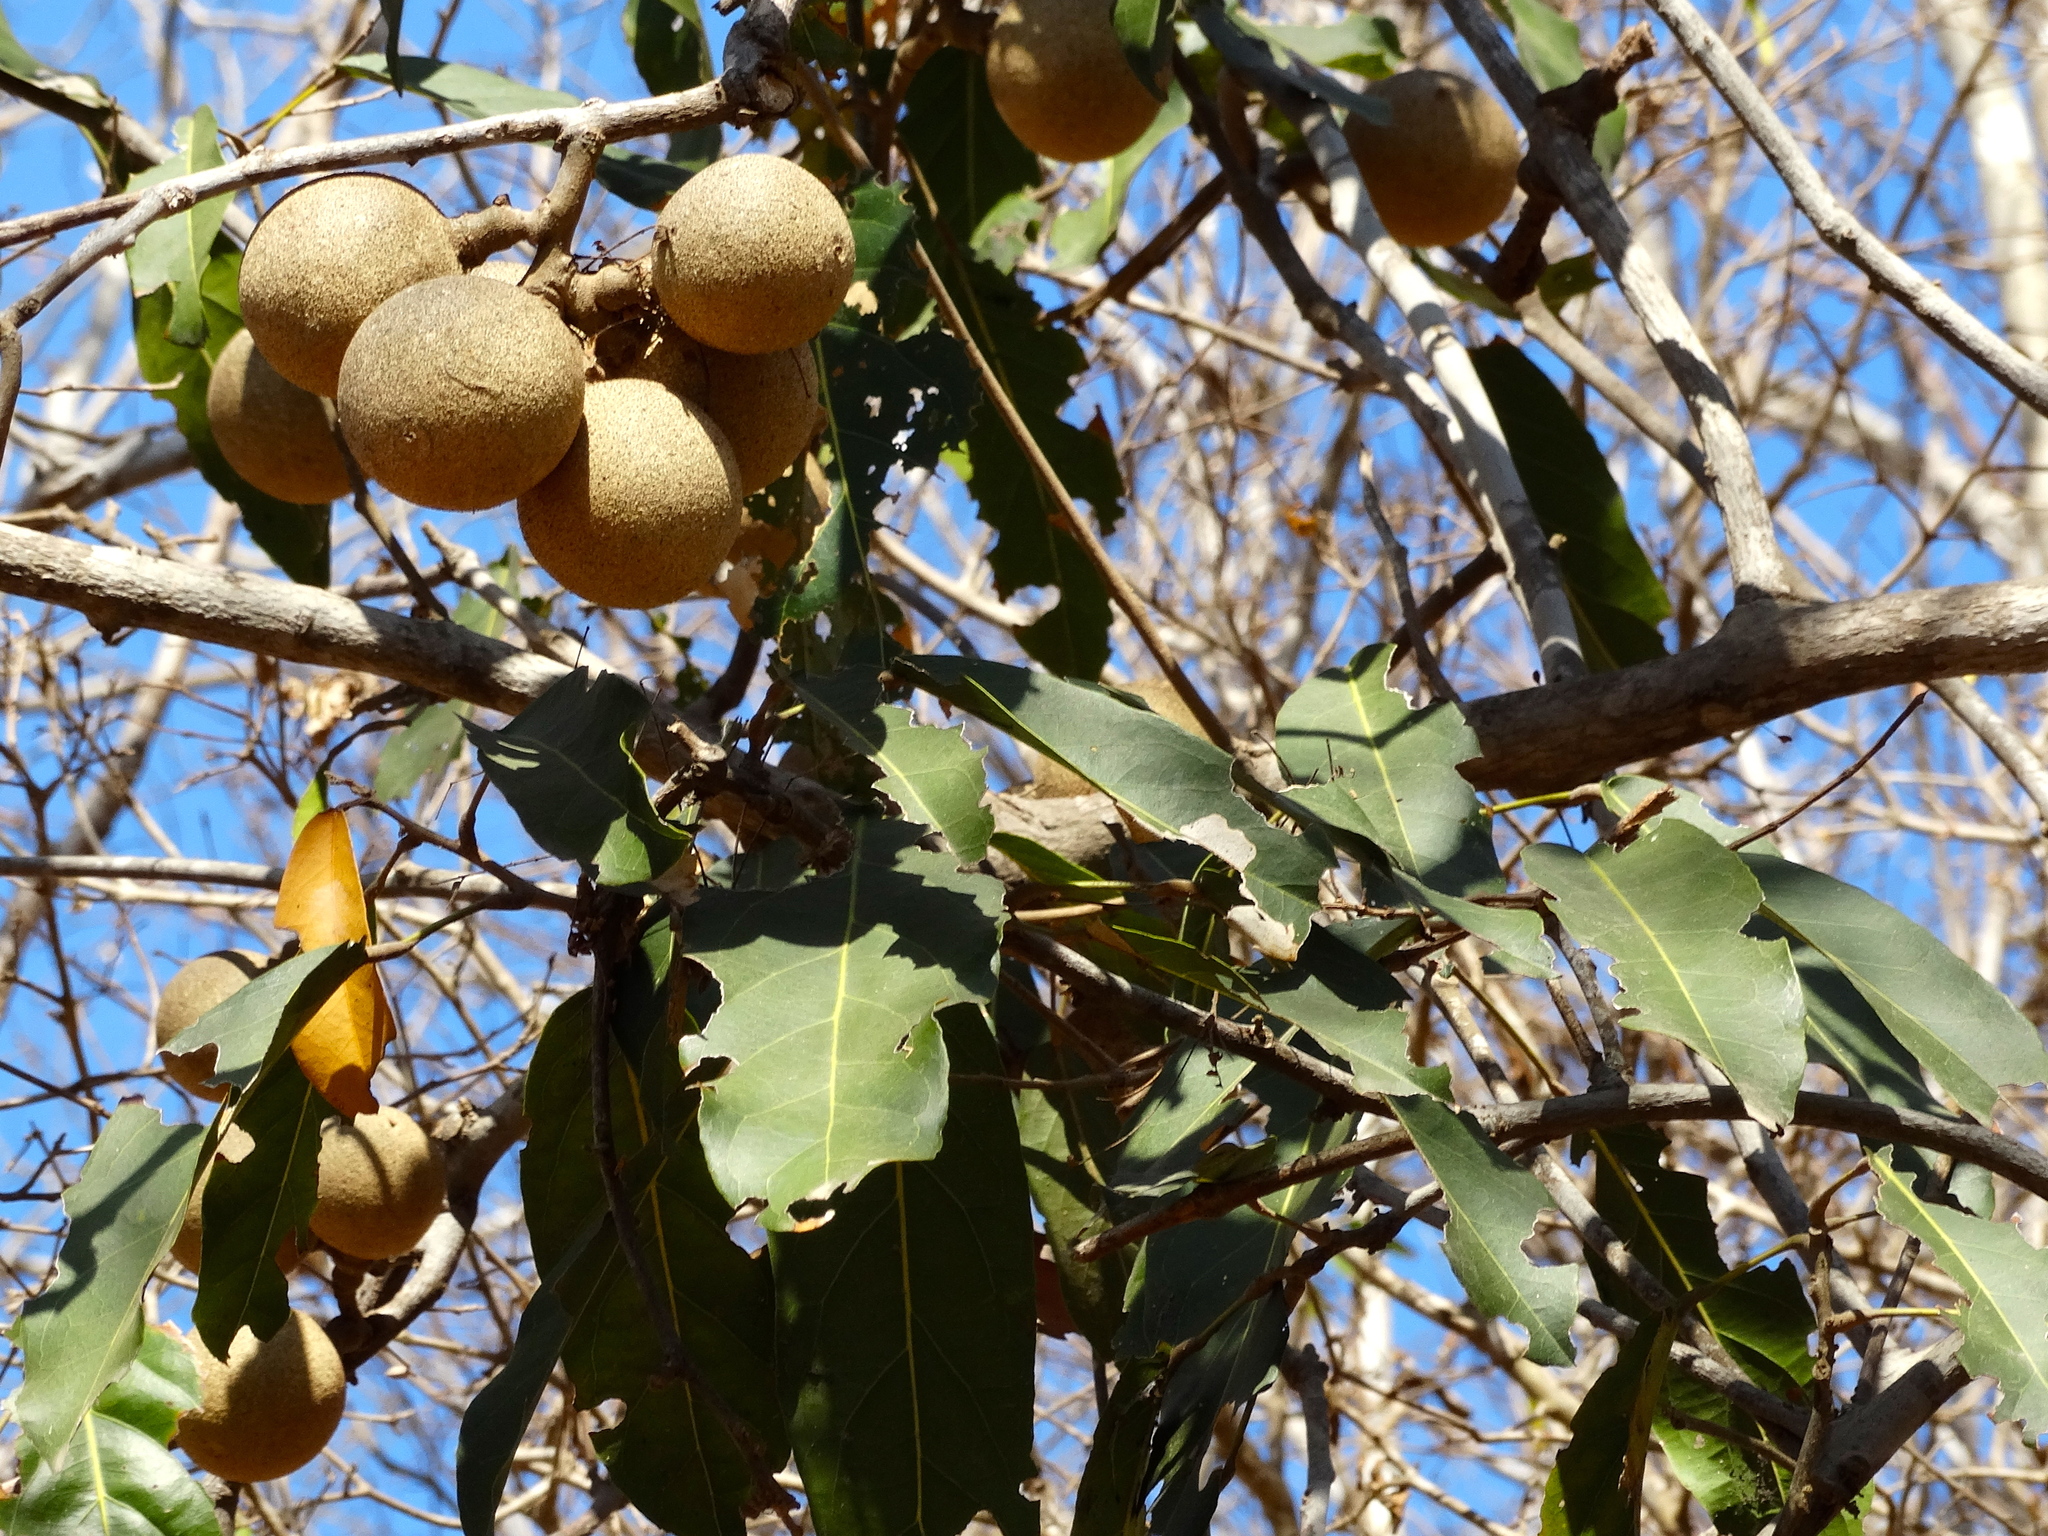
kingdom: Plantae
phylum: Tracheophyta
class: Magnoliopsida
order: Brassicales
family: Capparaceae
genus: Morisonia
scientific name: Morisonia americana
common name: Wild mesple
